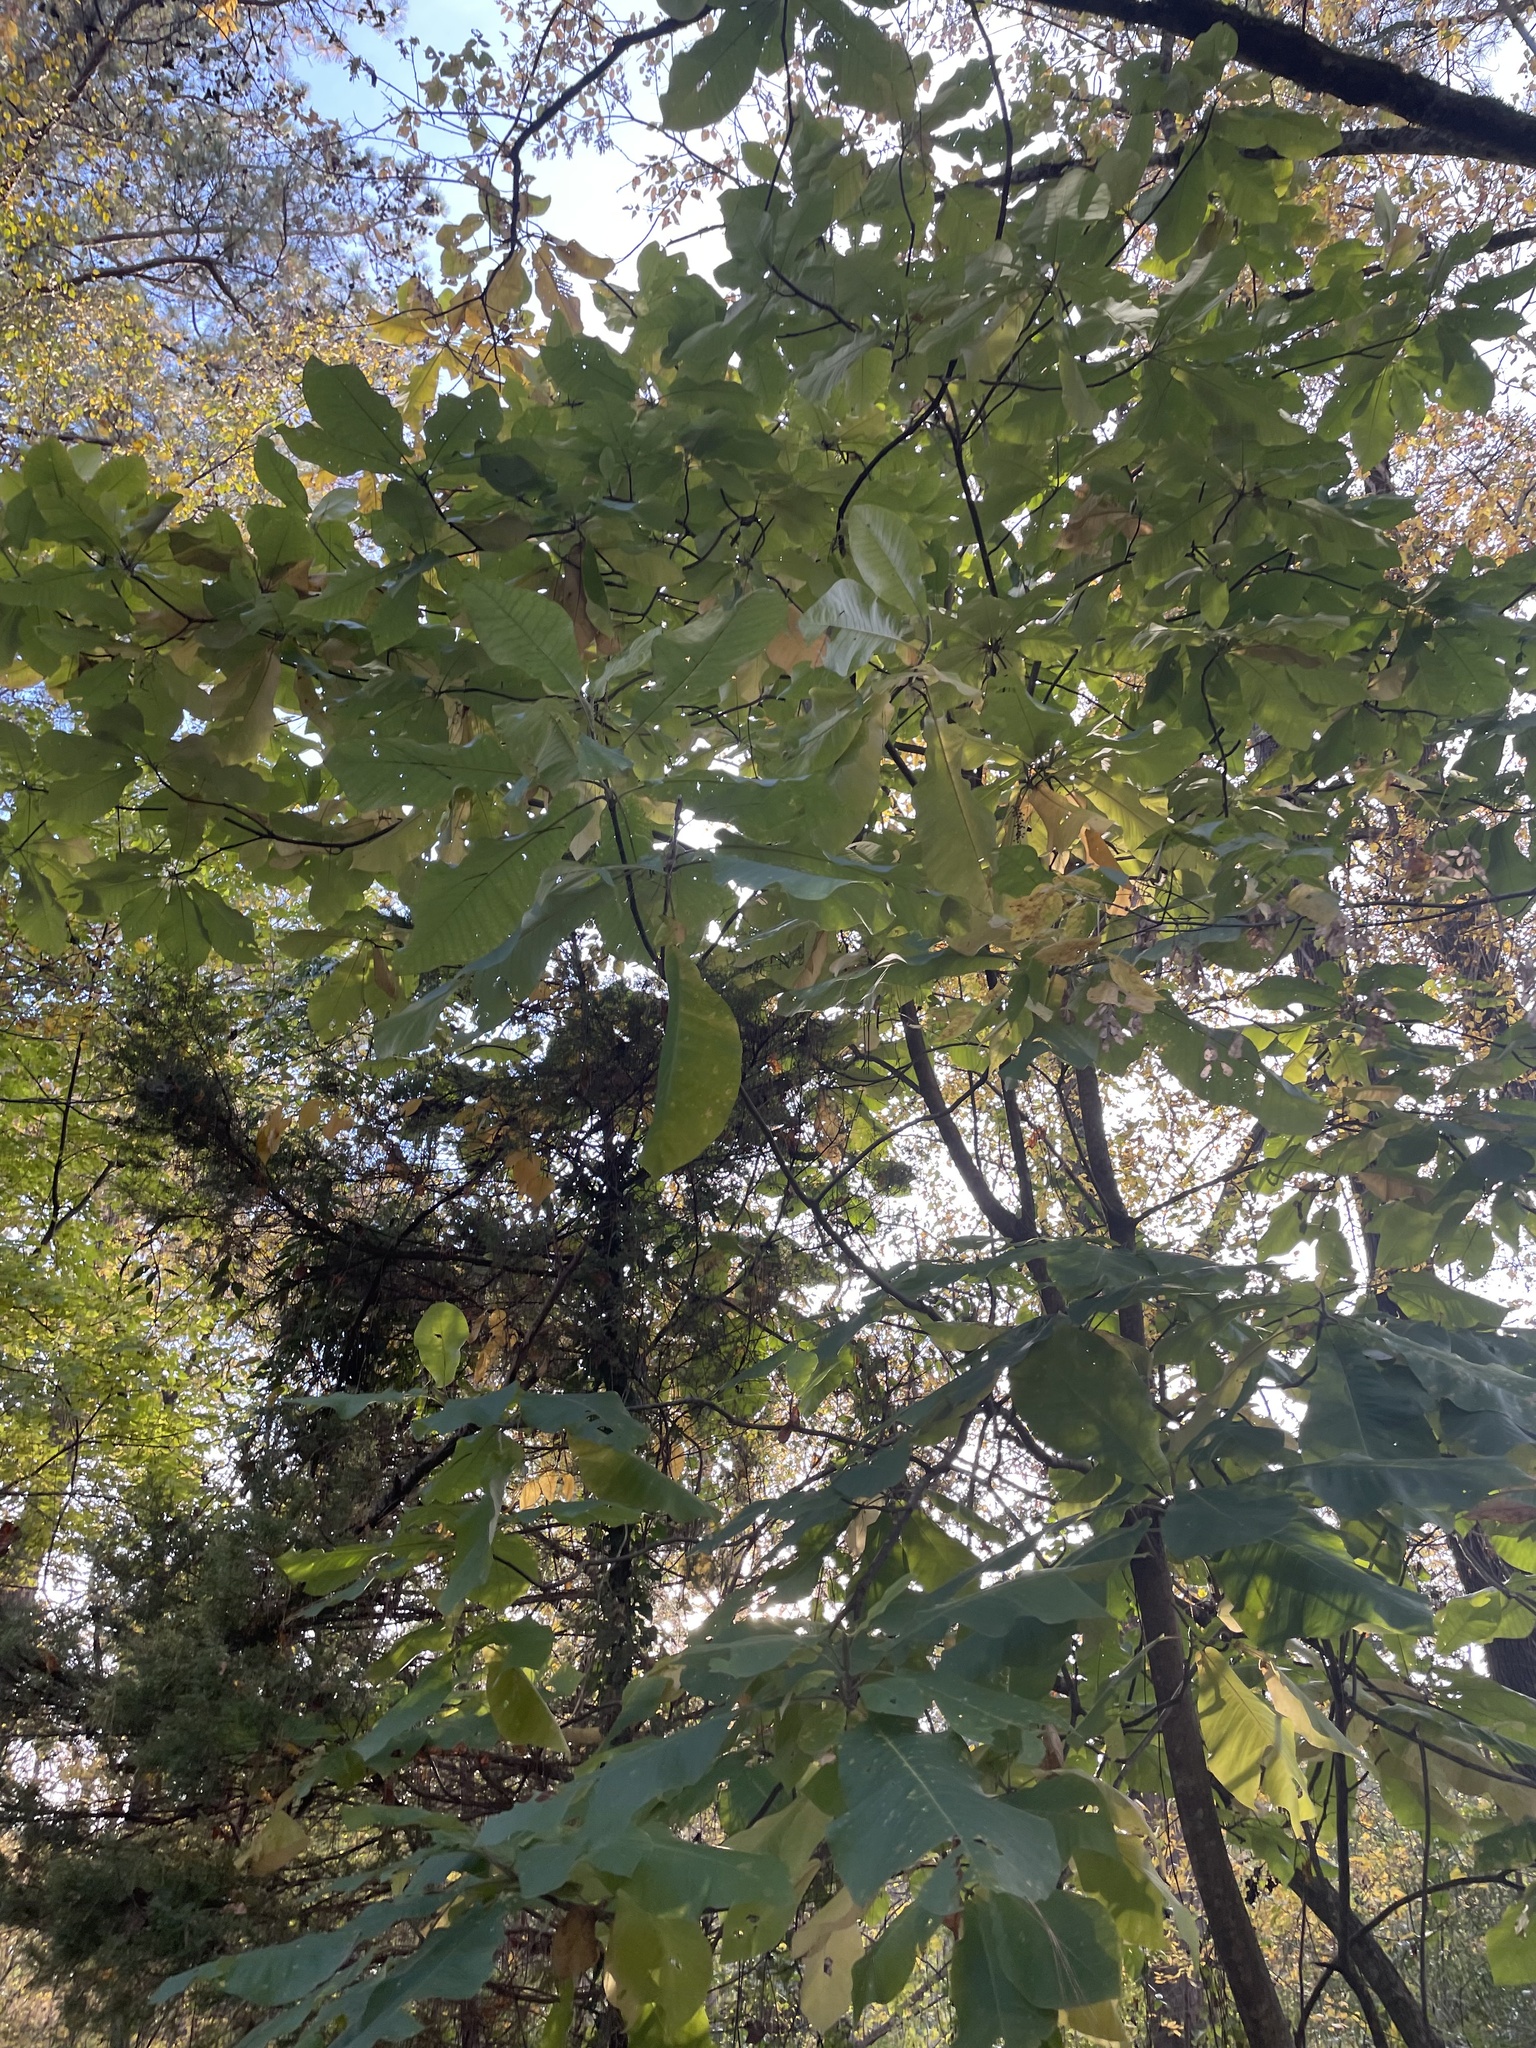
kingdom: Plantae
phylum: Tracheophyta
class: Magnoliopsida
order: Magnoliales
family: Magnoliaceae
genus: Magnolia
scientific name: Magnolia macrophylla
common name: Big-leaf magnolia
